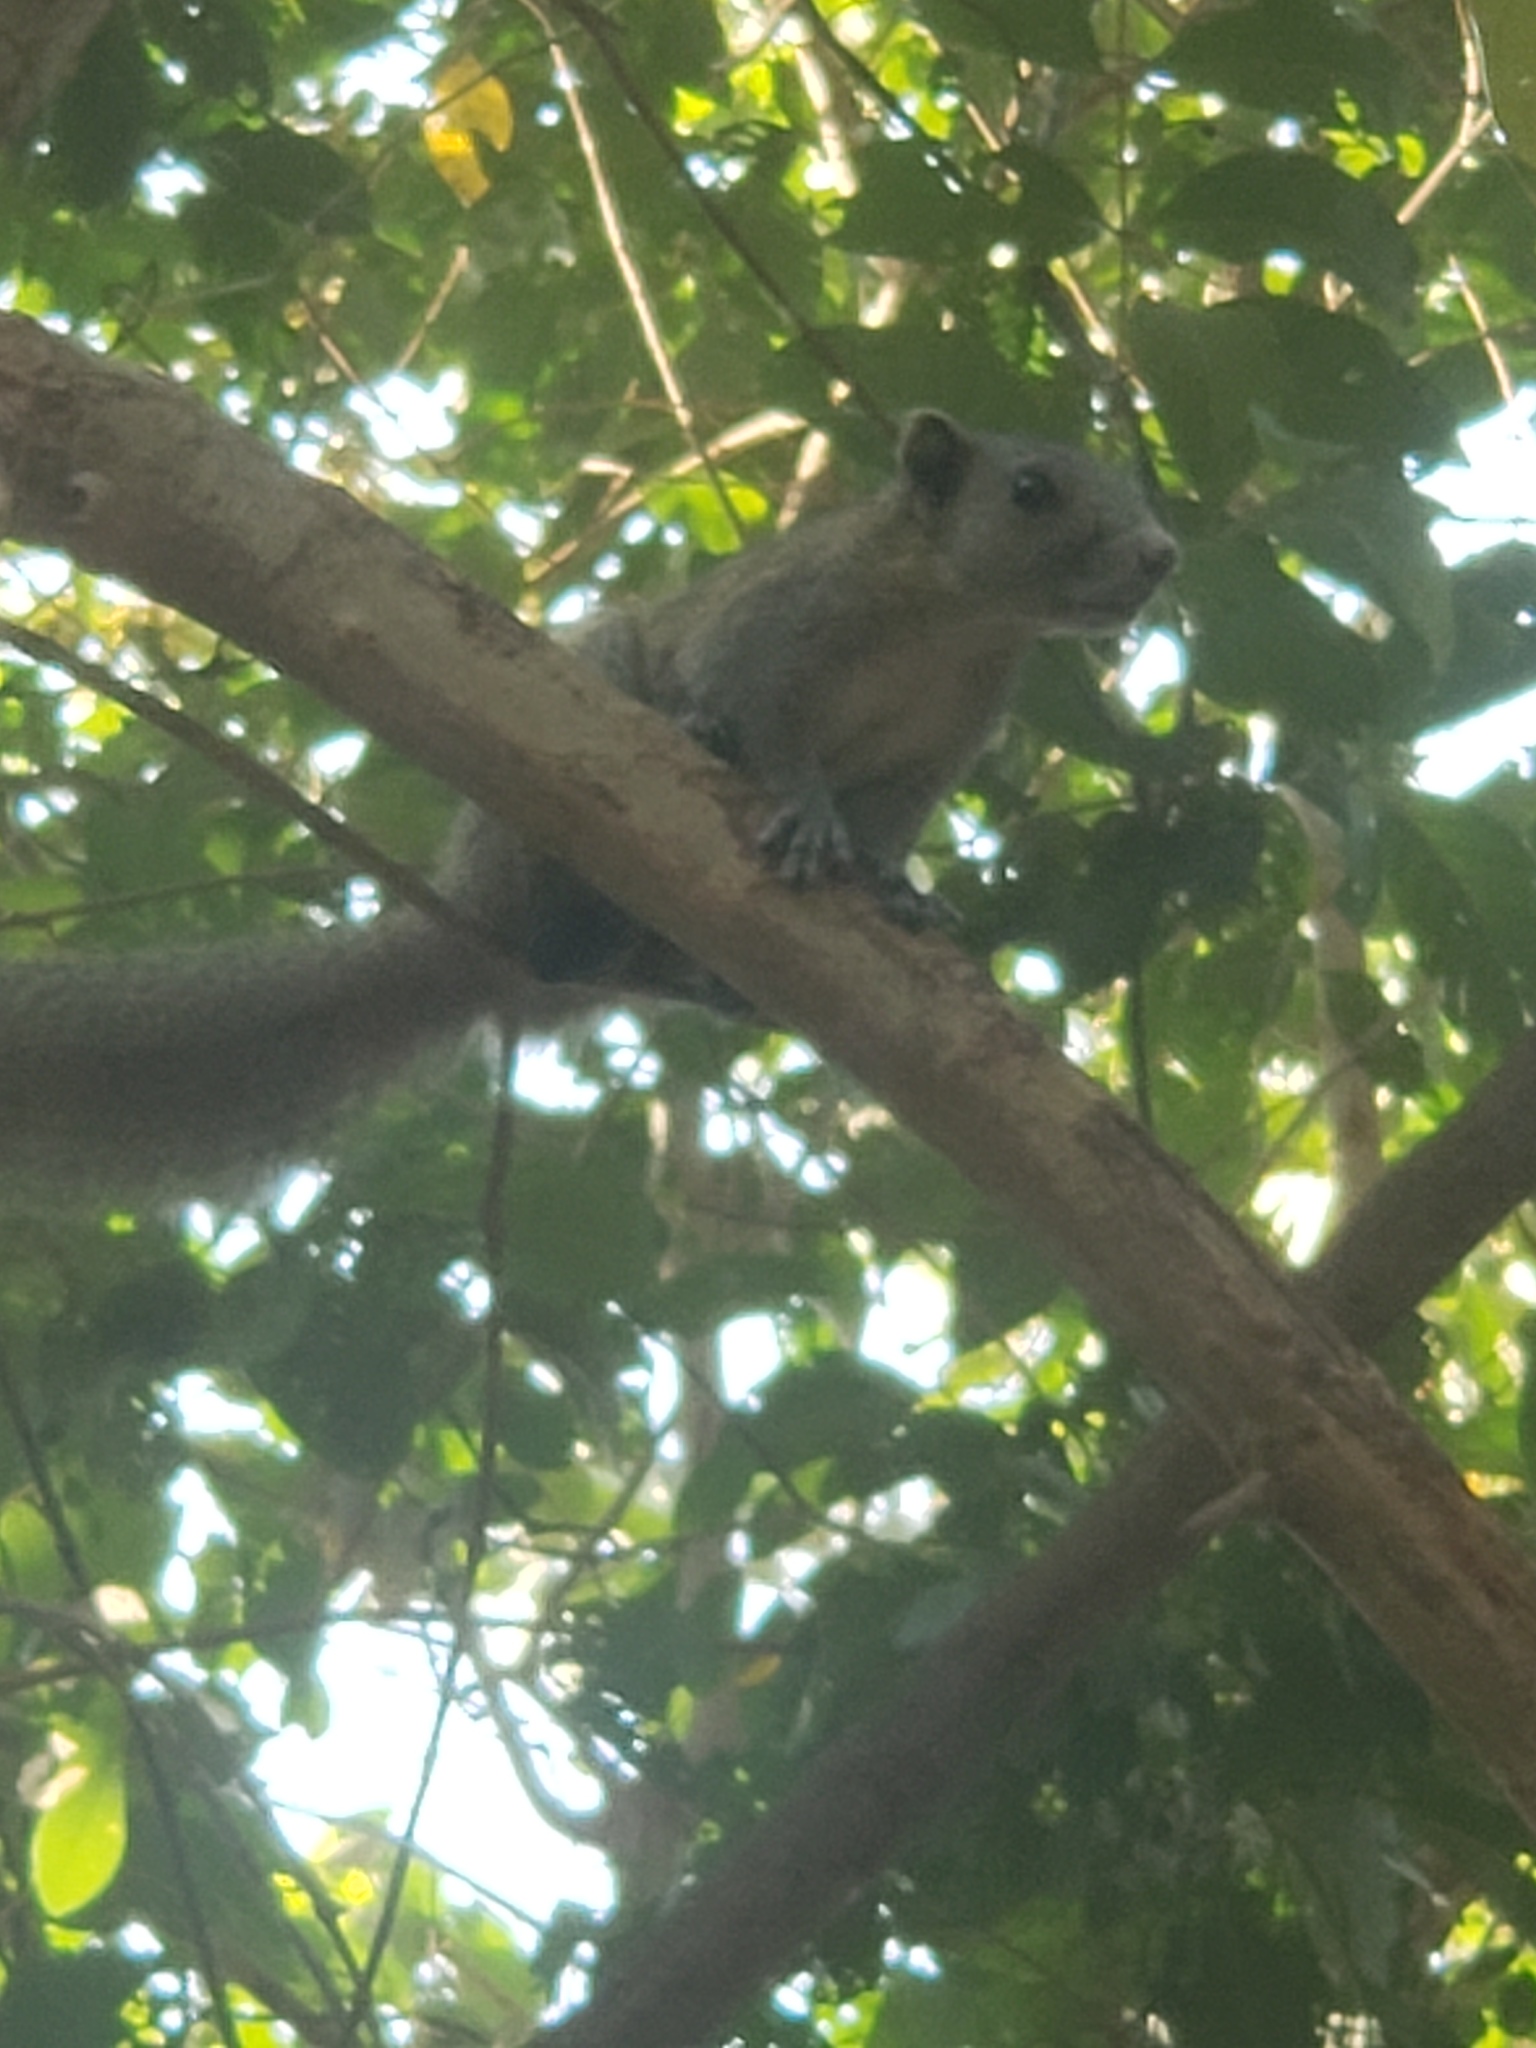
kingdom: Animalia
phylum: Chordata
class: Mammalia
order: Rodentia
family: Sciuridae
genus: Callosciurus
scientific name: Callosciurus caniceps
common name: Gray-bellied squirrel
